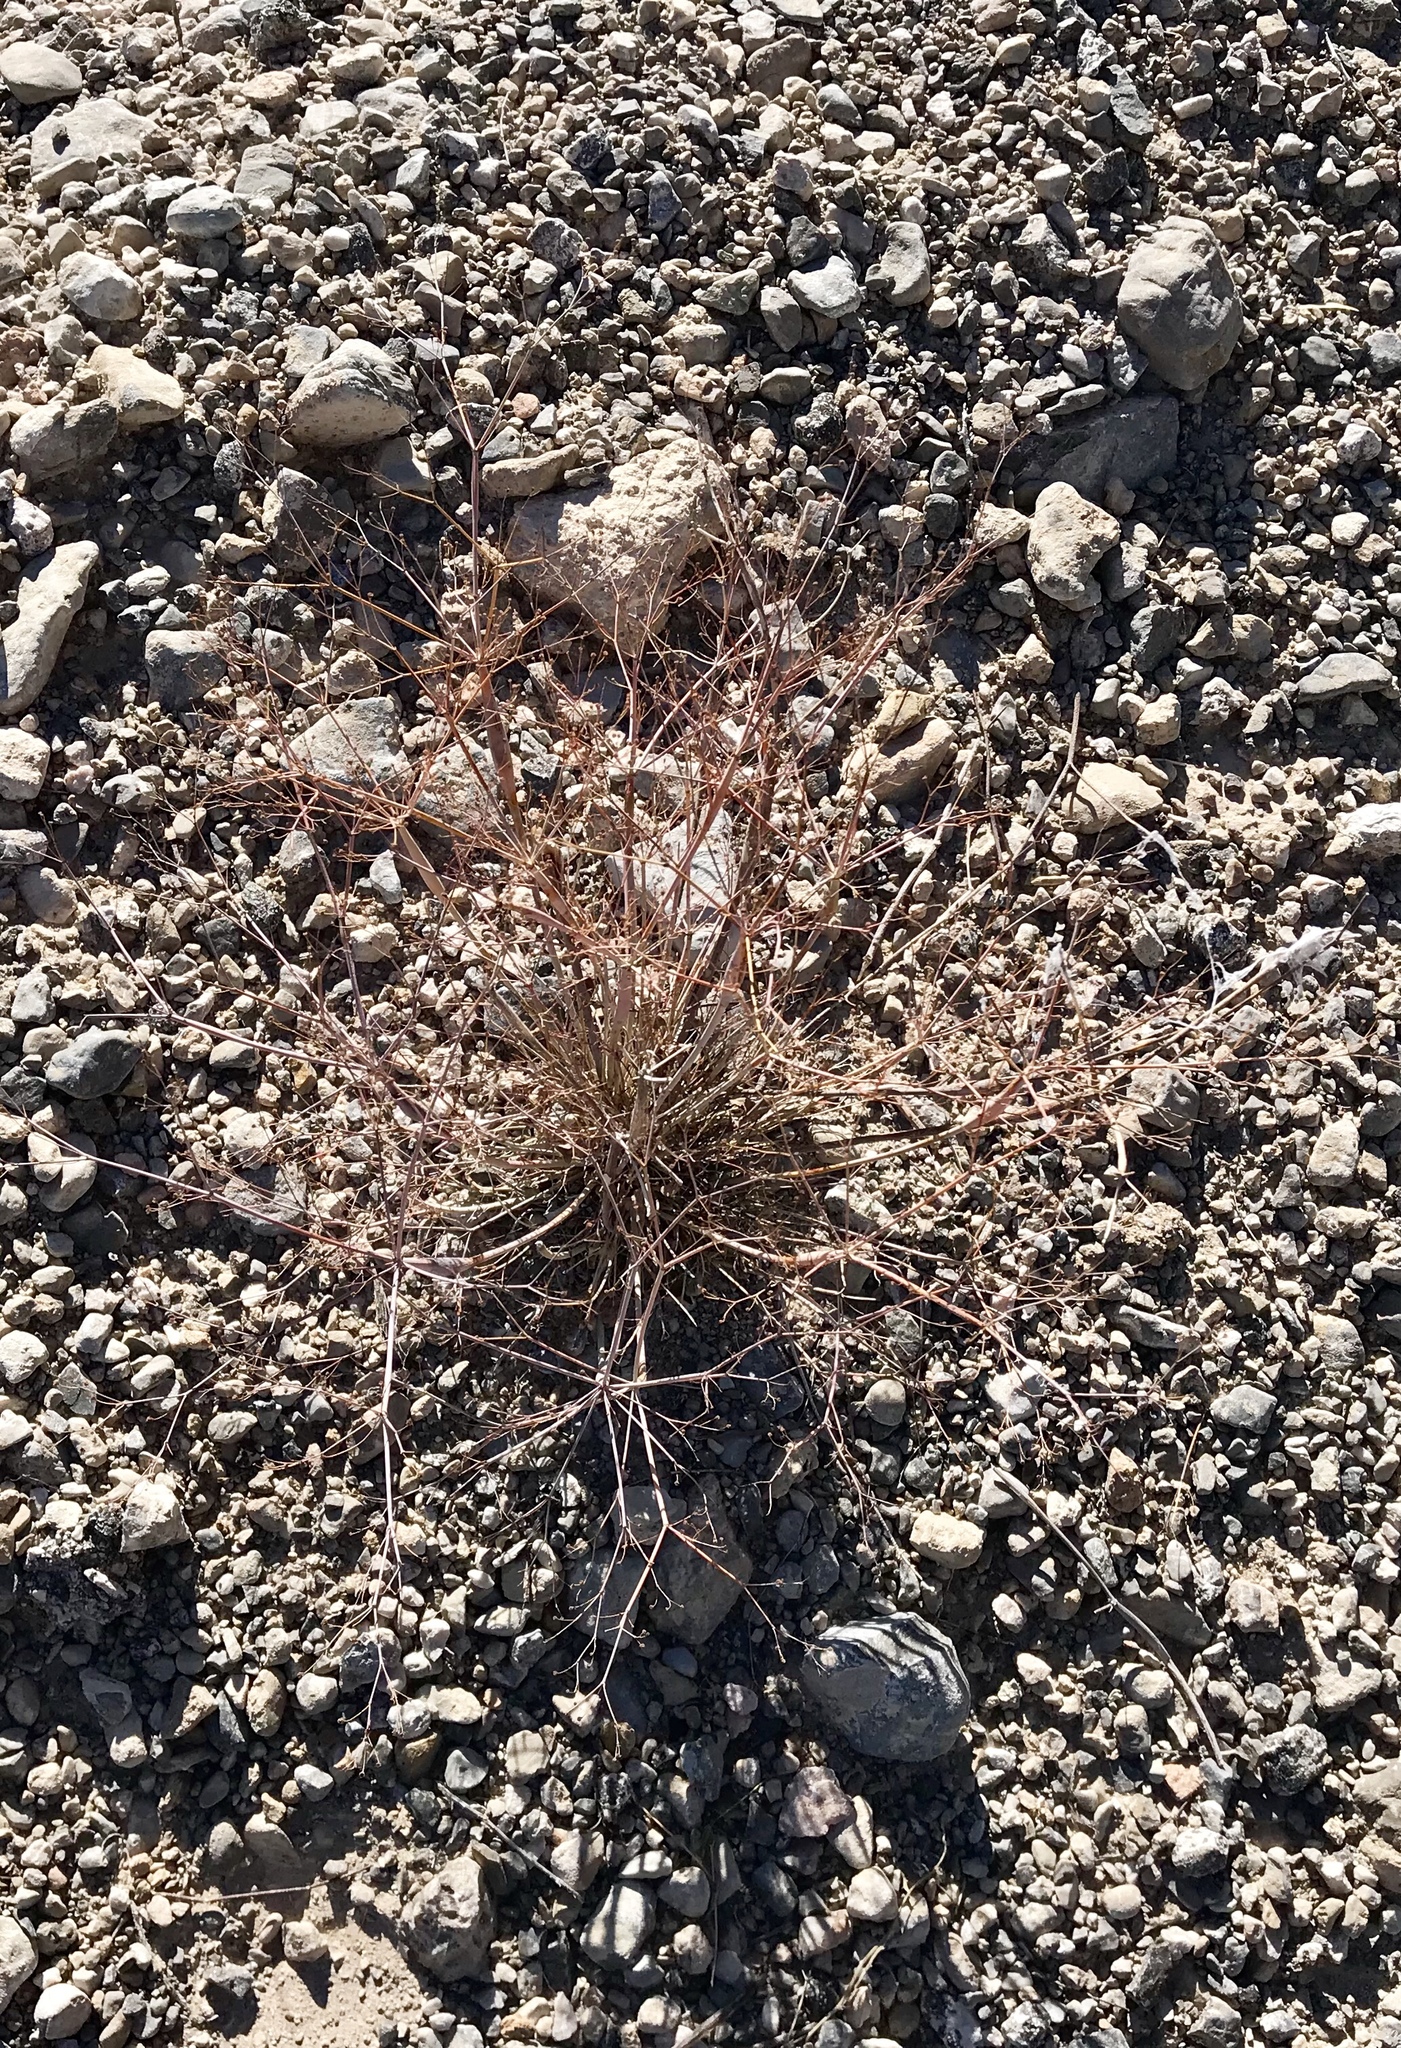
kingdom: Plantae
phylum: Tracheophyta
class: Magnoliopsida
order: Caryophyllales
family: Polygonaceae
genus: Eriogonum
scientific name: Eriogonum inflatum
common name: Desert trumpet
